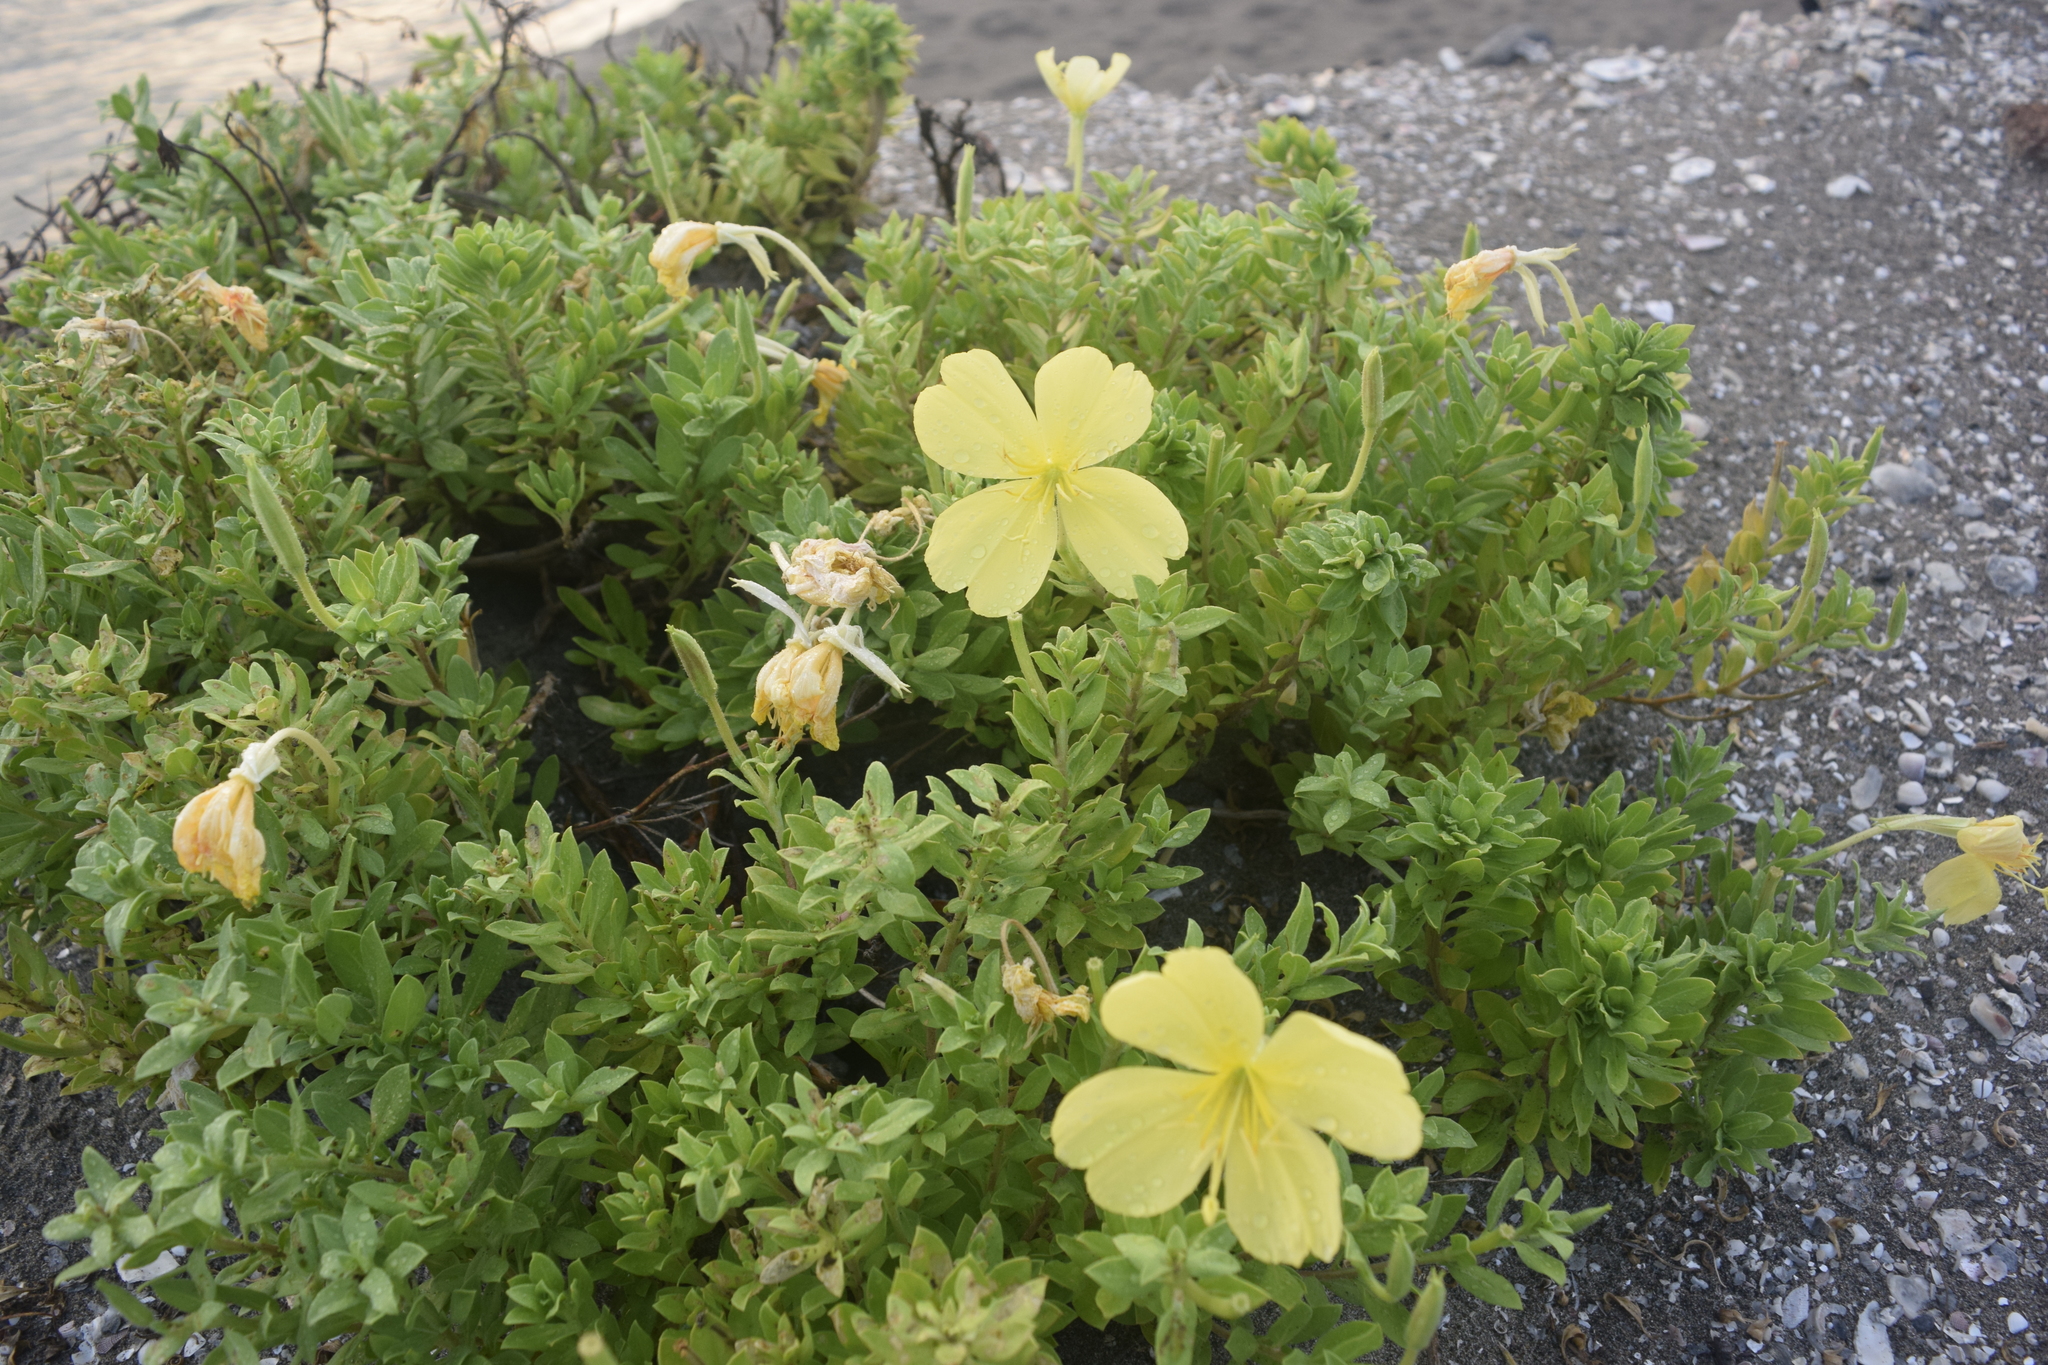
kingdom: Plantae
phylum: Tracheophyta
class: Magnoliopsida
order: Myrtales
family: Onagraceae
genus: Oenothera
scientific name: Oenothera drummondii
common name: Beach evening-primrose
